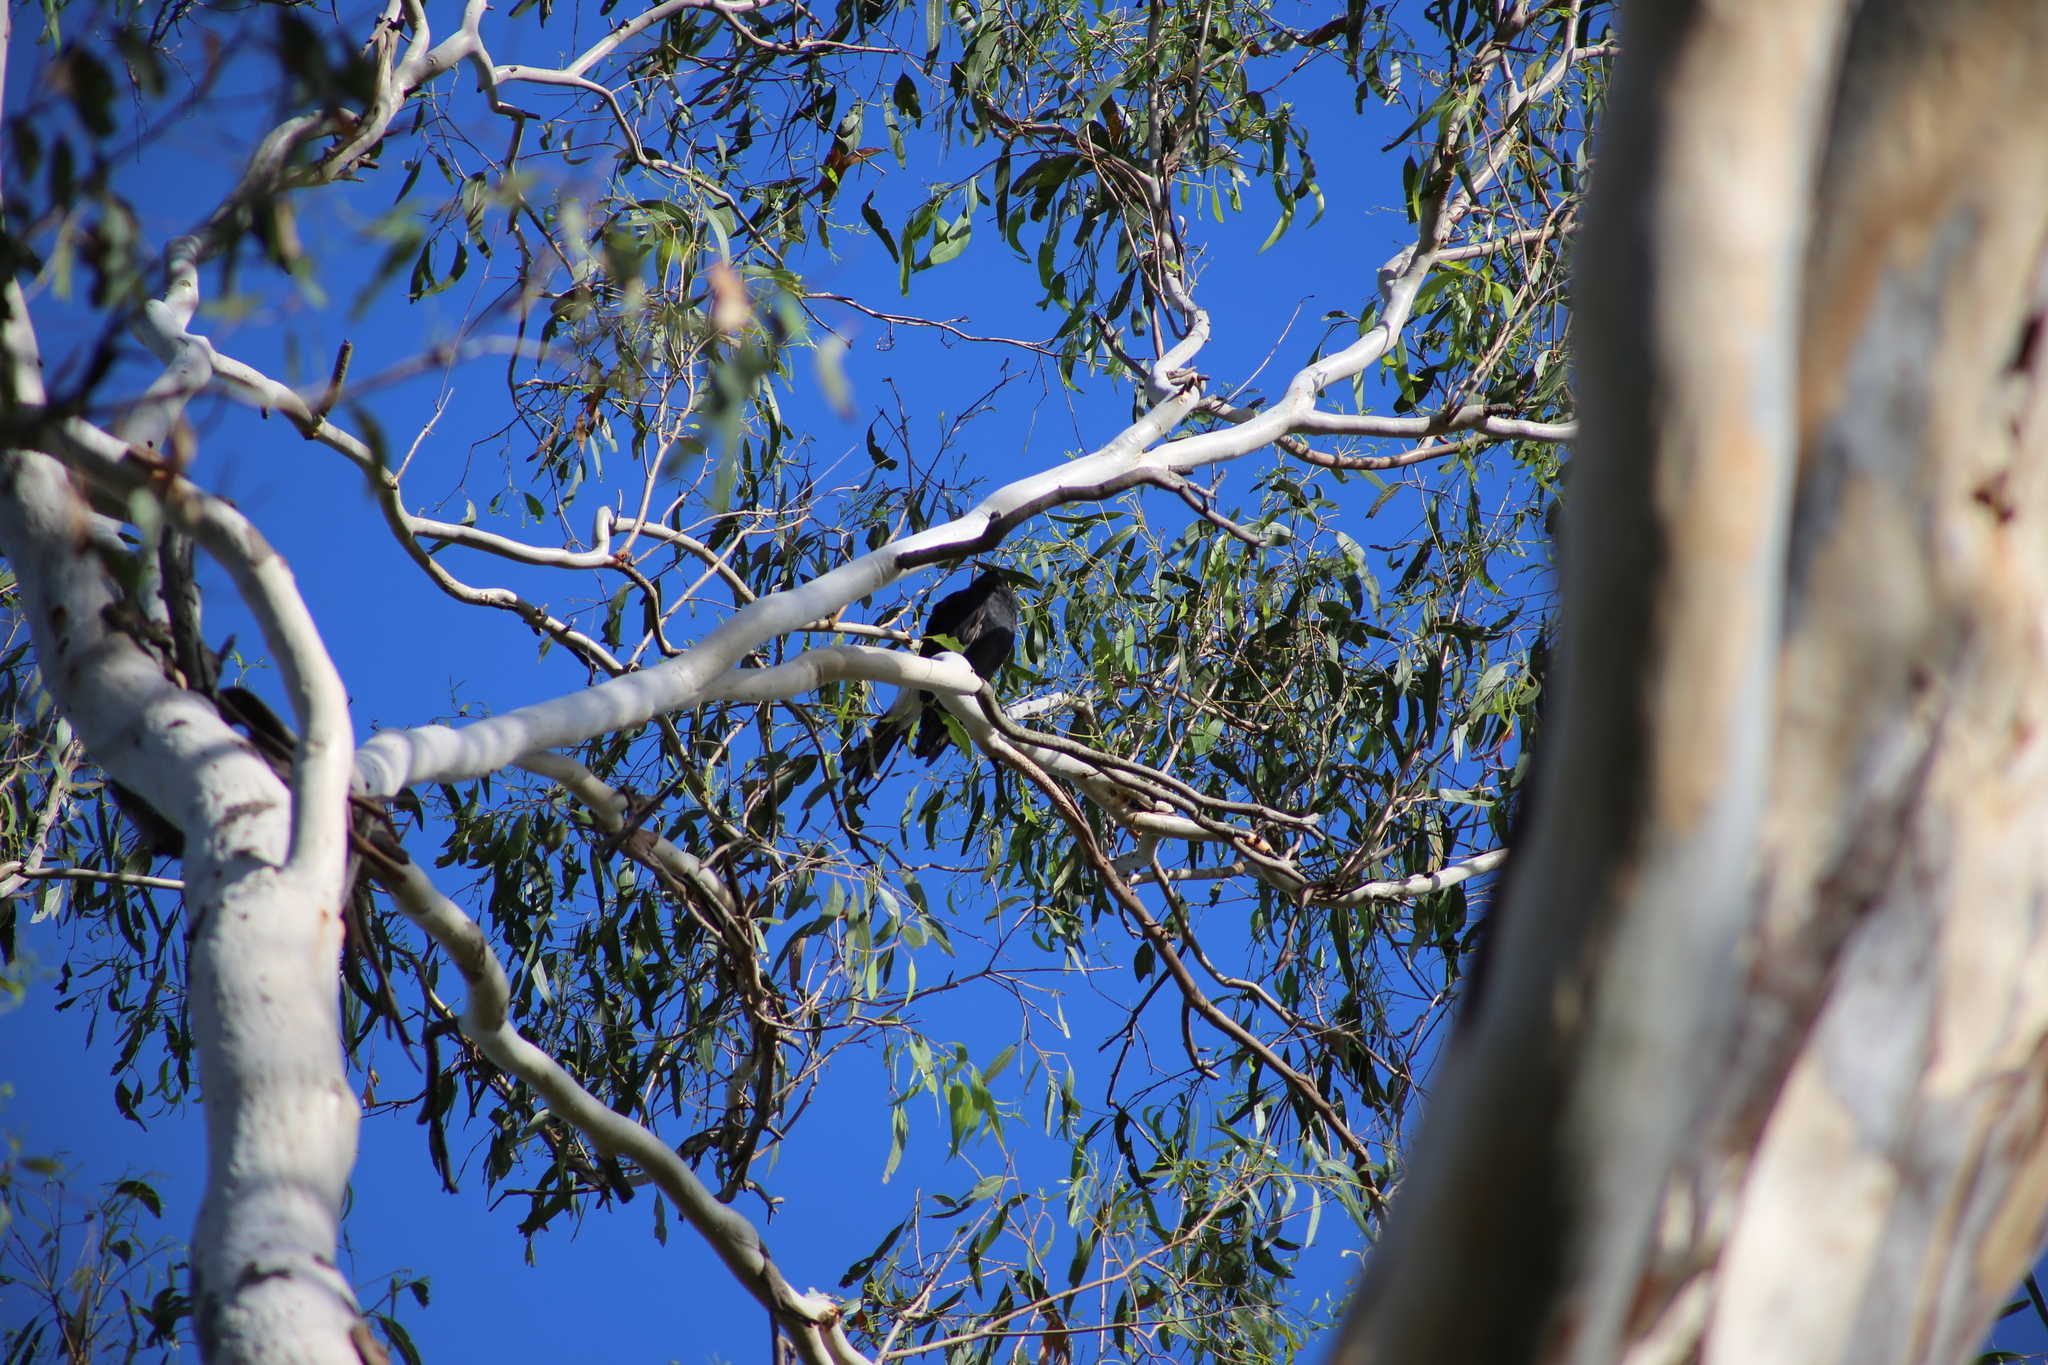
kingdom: Animalia
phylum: Chordata
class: Aves
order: Passeriformes
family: Cracticidae
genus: Strepera
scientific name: Strepera graculina
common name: Pied currawong
